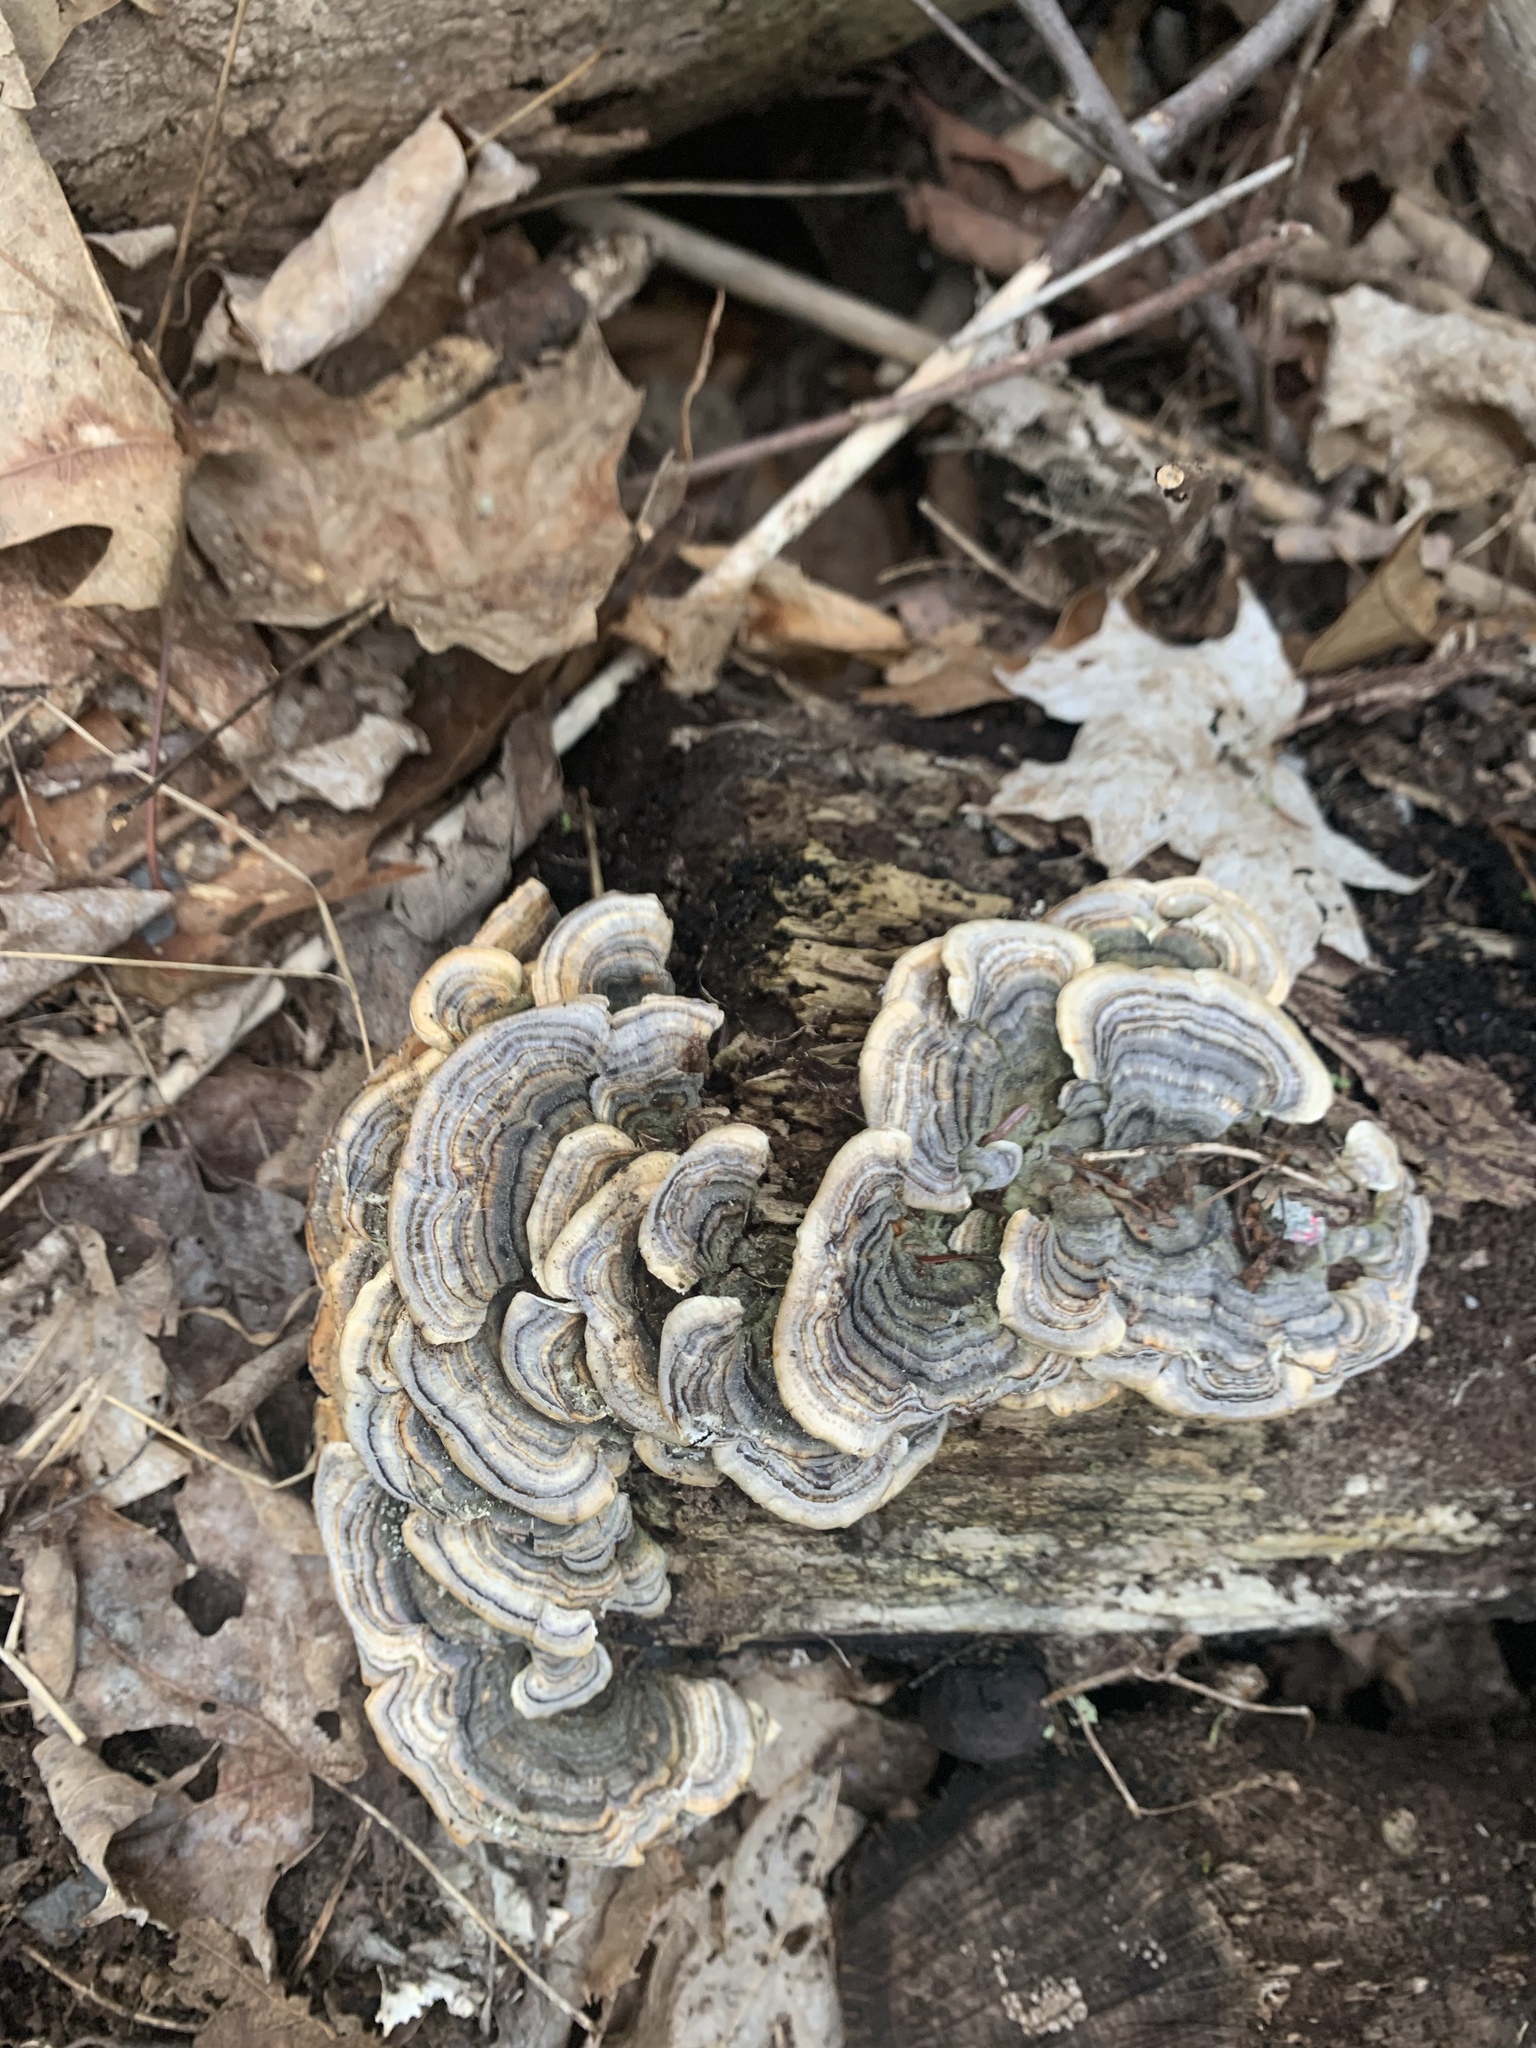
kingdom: Fungi
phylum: Basidiomycota
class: Agaricomycetes
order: Polyporales
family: Polyporaceae
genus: Trametes
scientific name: Trametes versicolor
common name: Turkeytail
